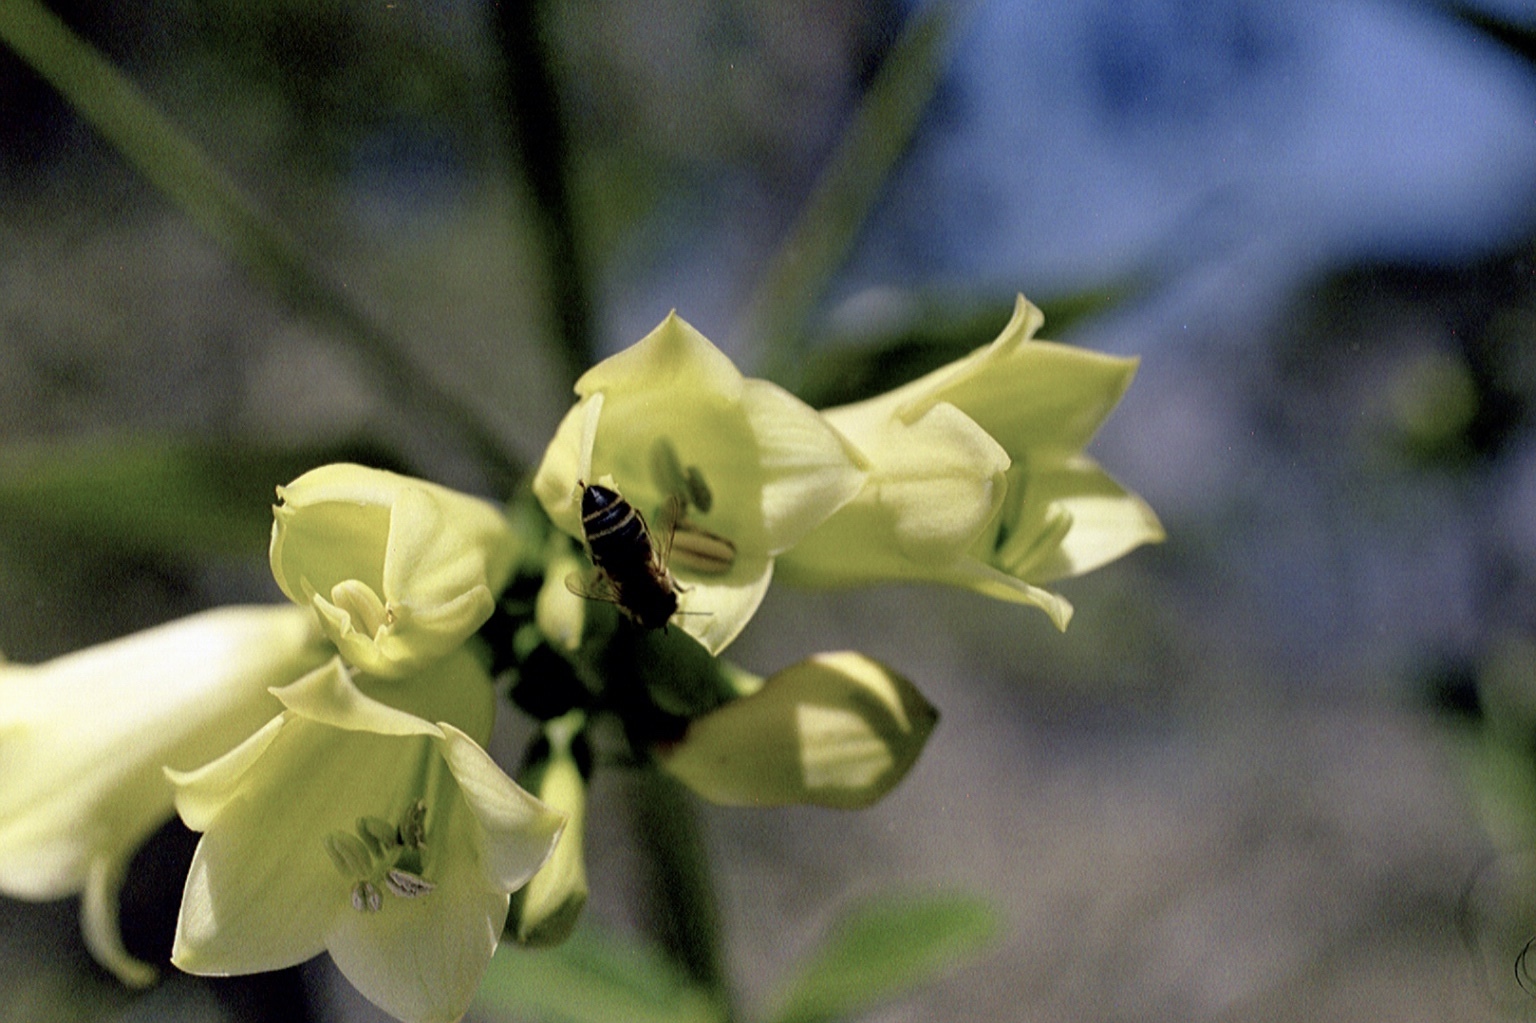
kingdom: Animalia
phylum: Arthropoda
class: Insecta
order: Hymenoptera
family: Apidae
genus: Apis
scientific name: Apis mellifera
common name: Honey bee
